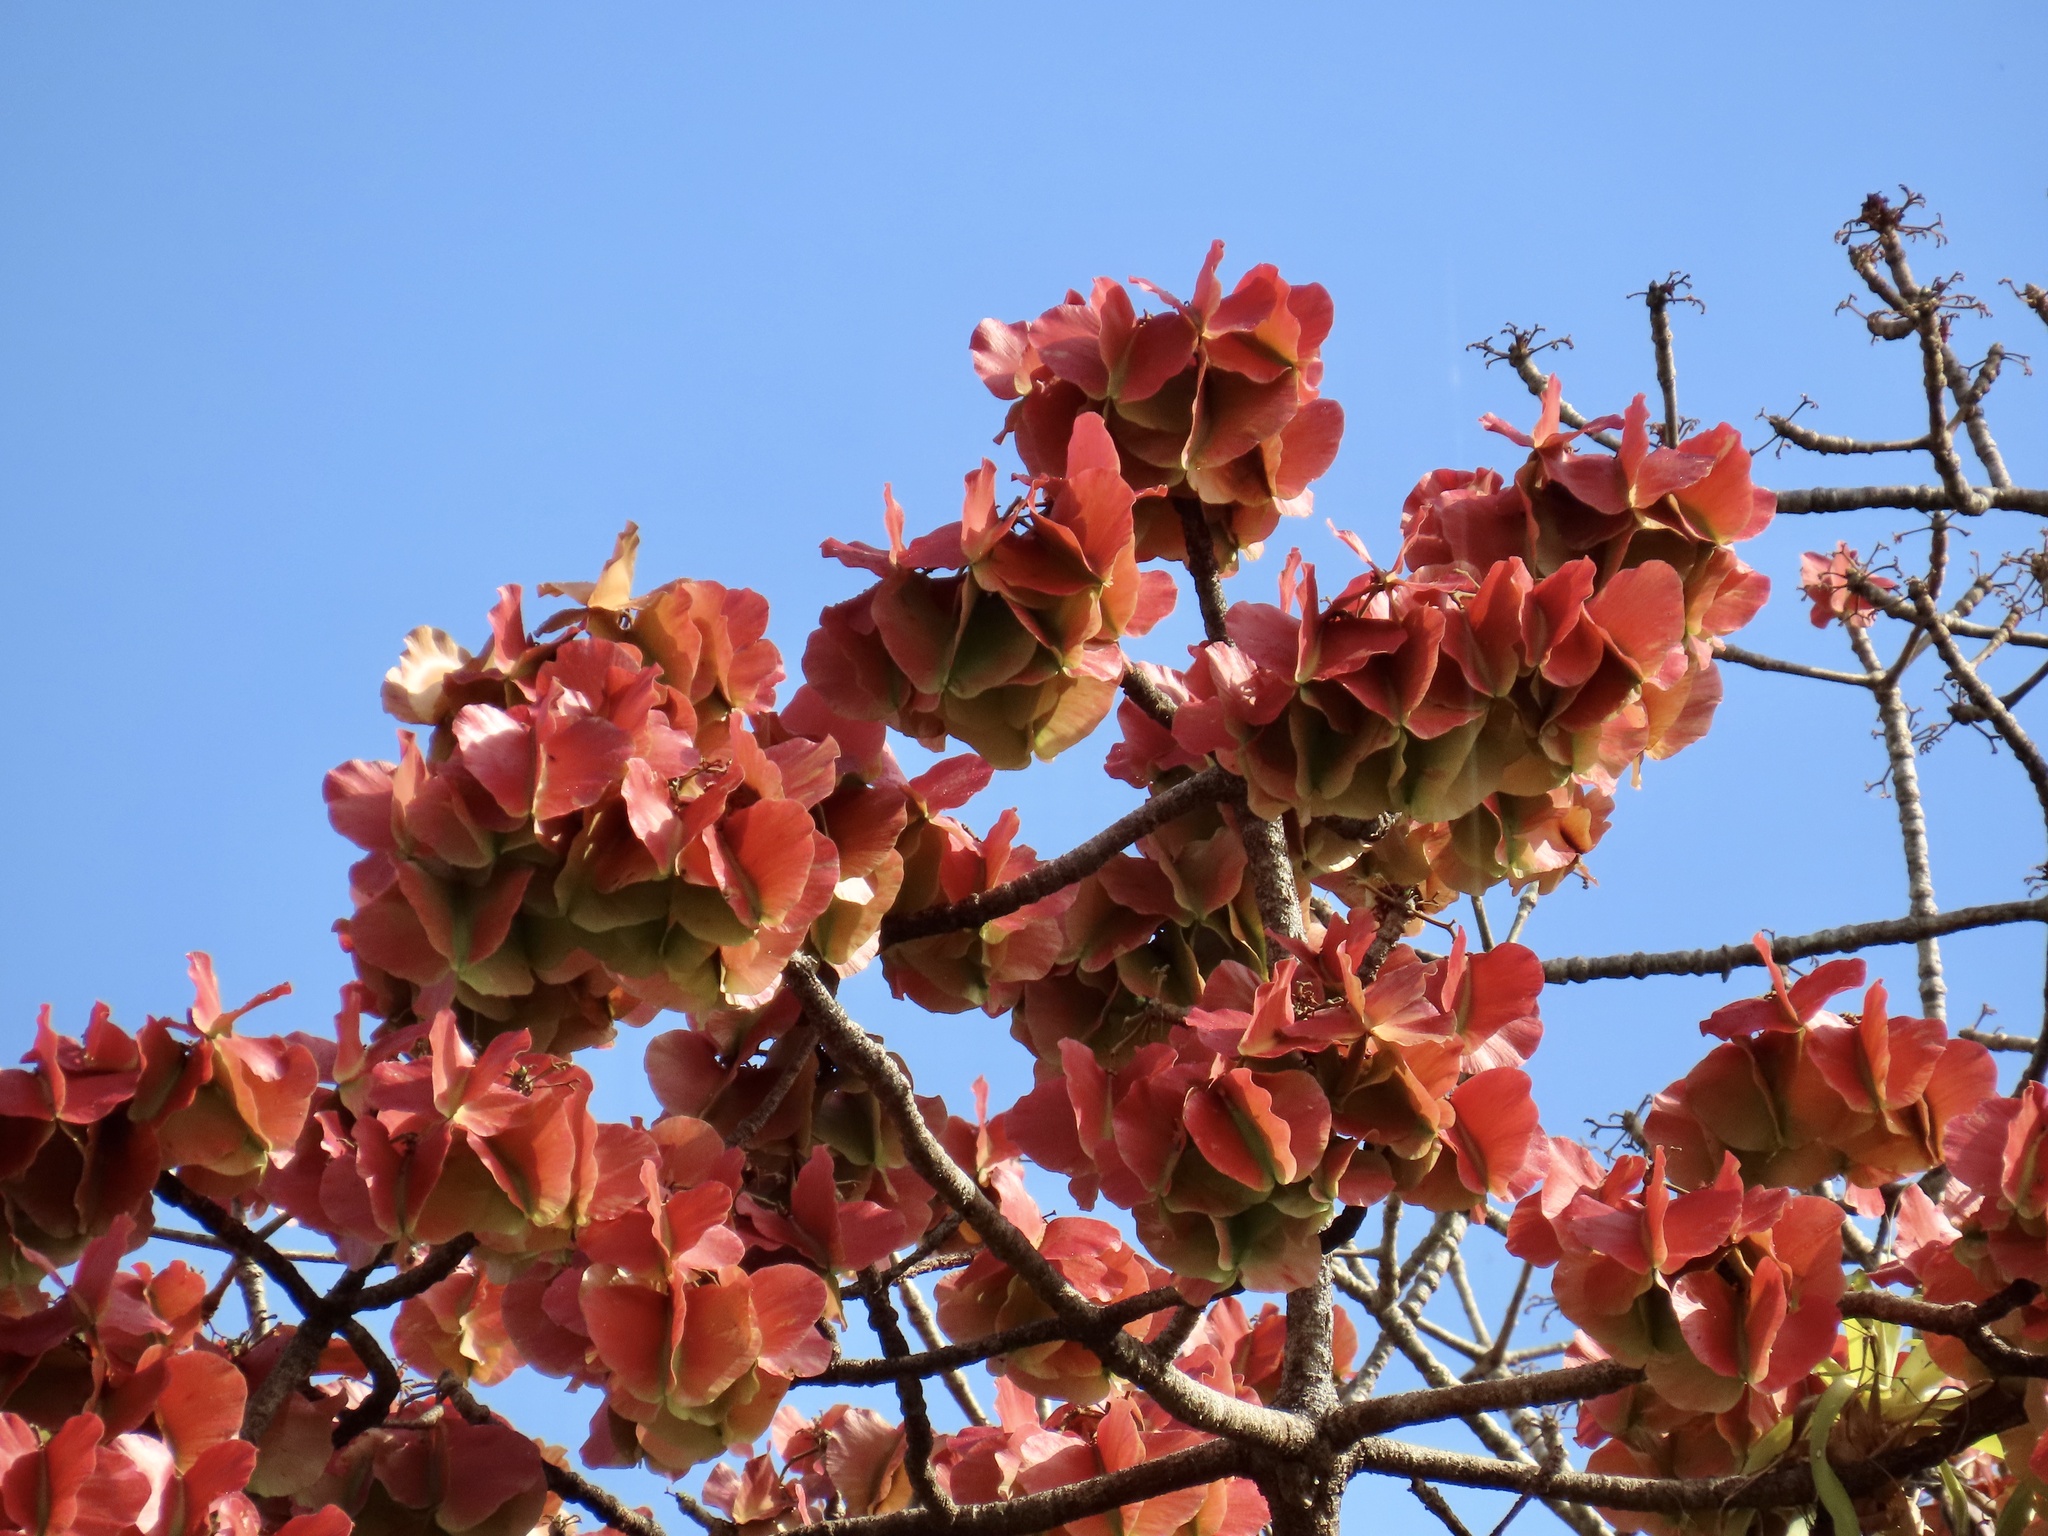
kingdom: Plantae
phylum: Tracheophyta
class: Magnoliopsida
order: Malvales
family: Malvaceae
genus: Cavanillesia
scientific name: Cavanillesia platanifolia
